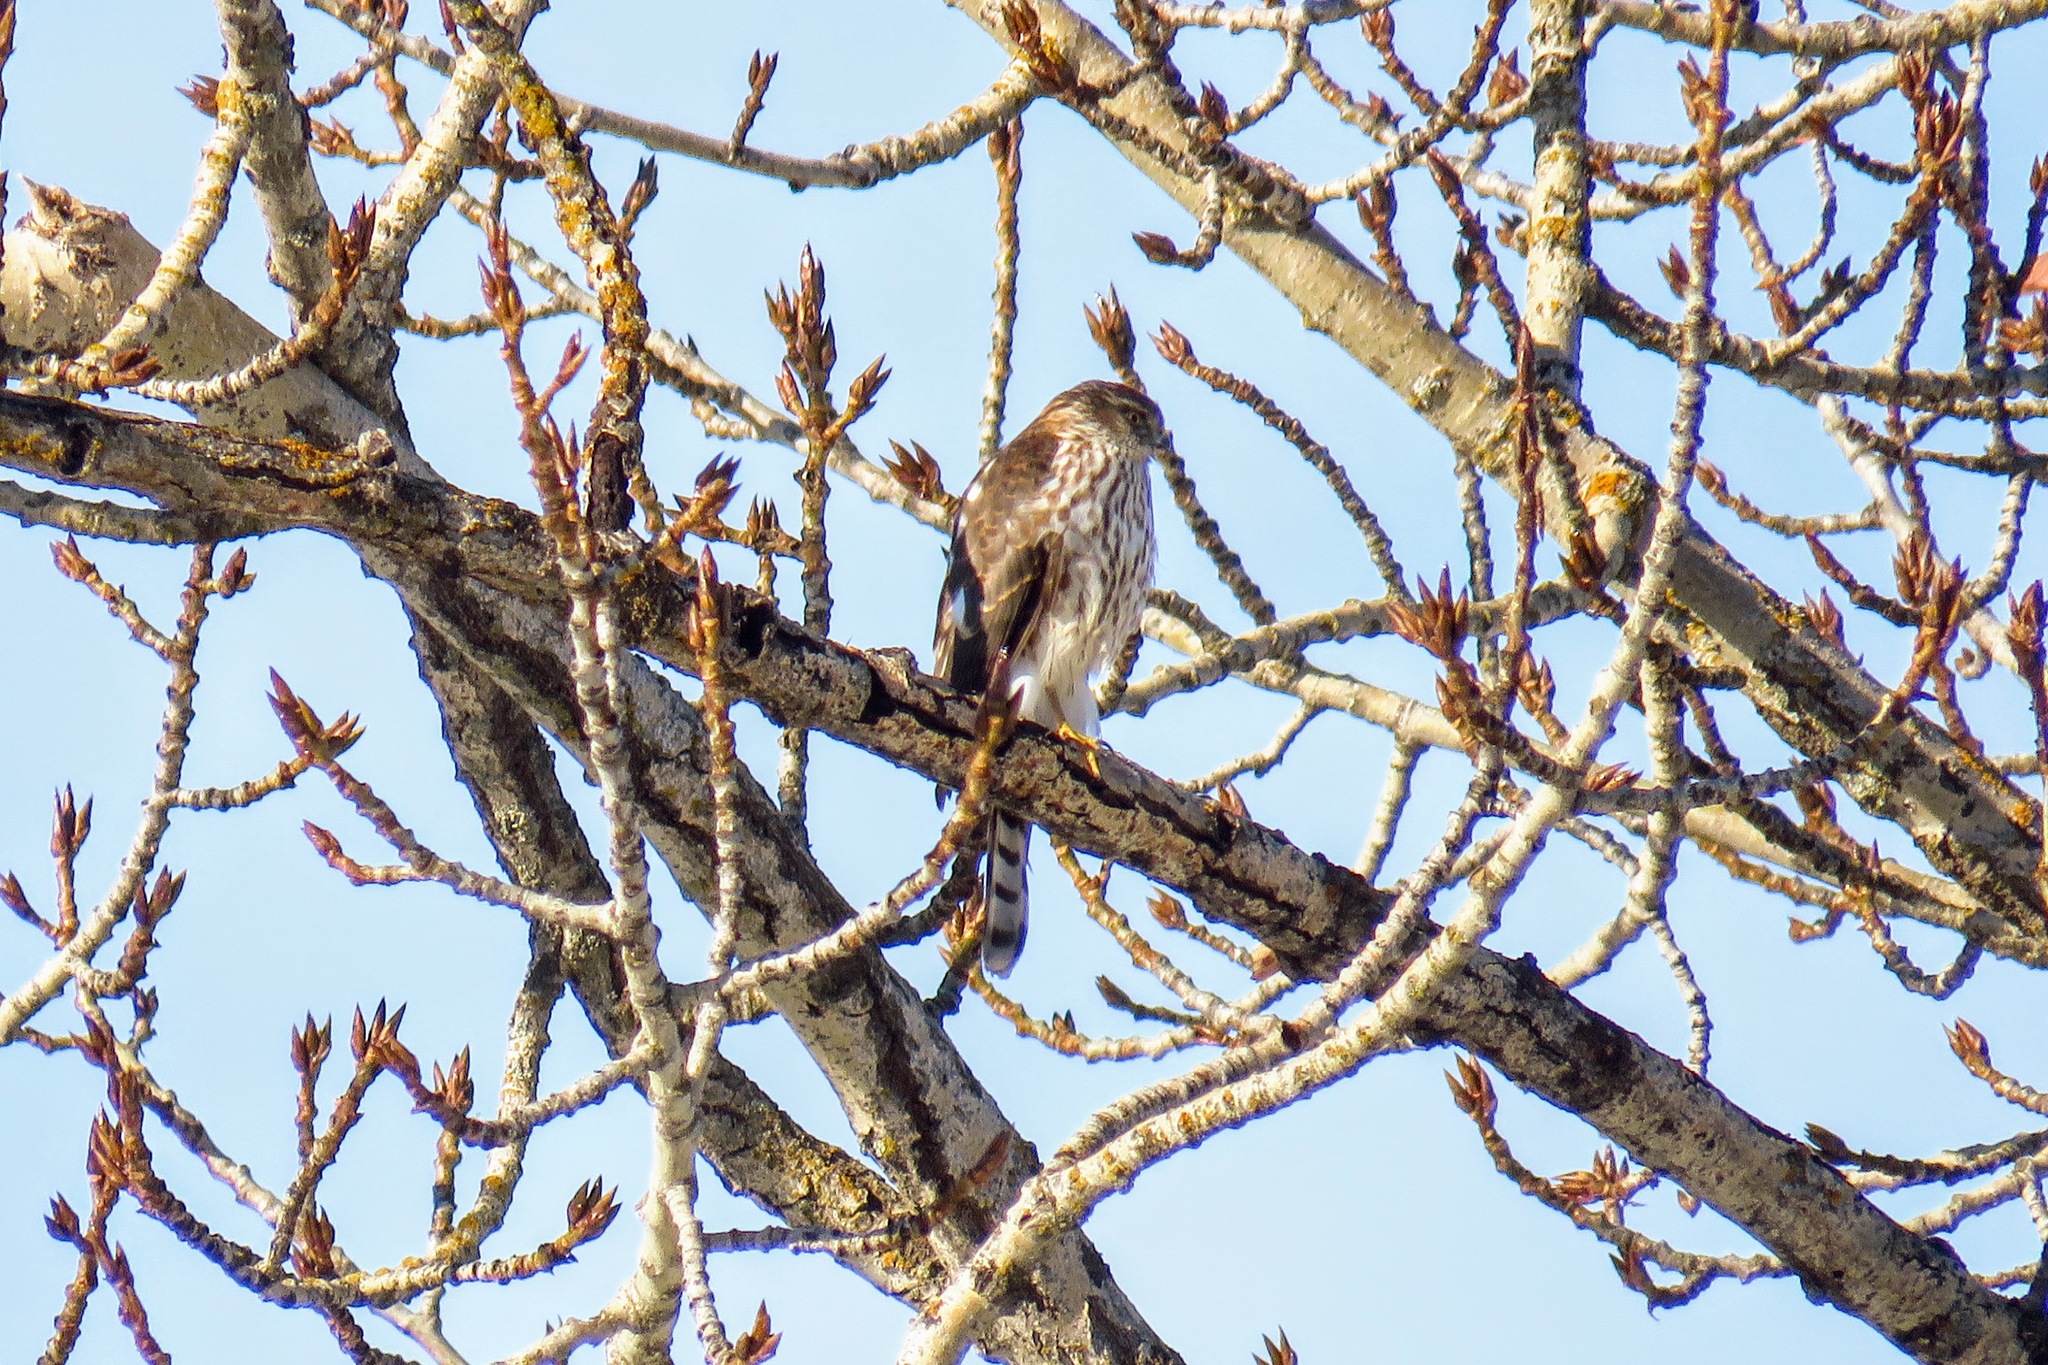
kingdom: Animalia
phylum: Chordata
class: Aves
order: Accipitriformes
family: Accipitridae
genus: Accipiter
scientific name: Accipiter striatus
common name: Sharp-shinned hawk
